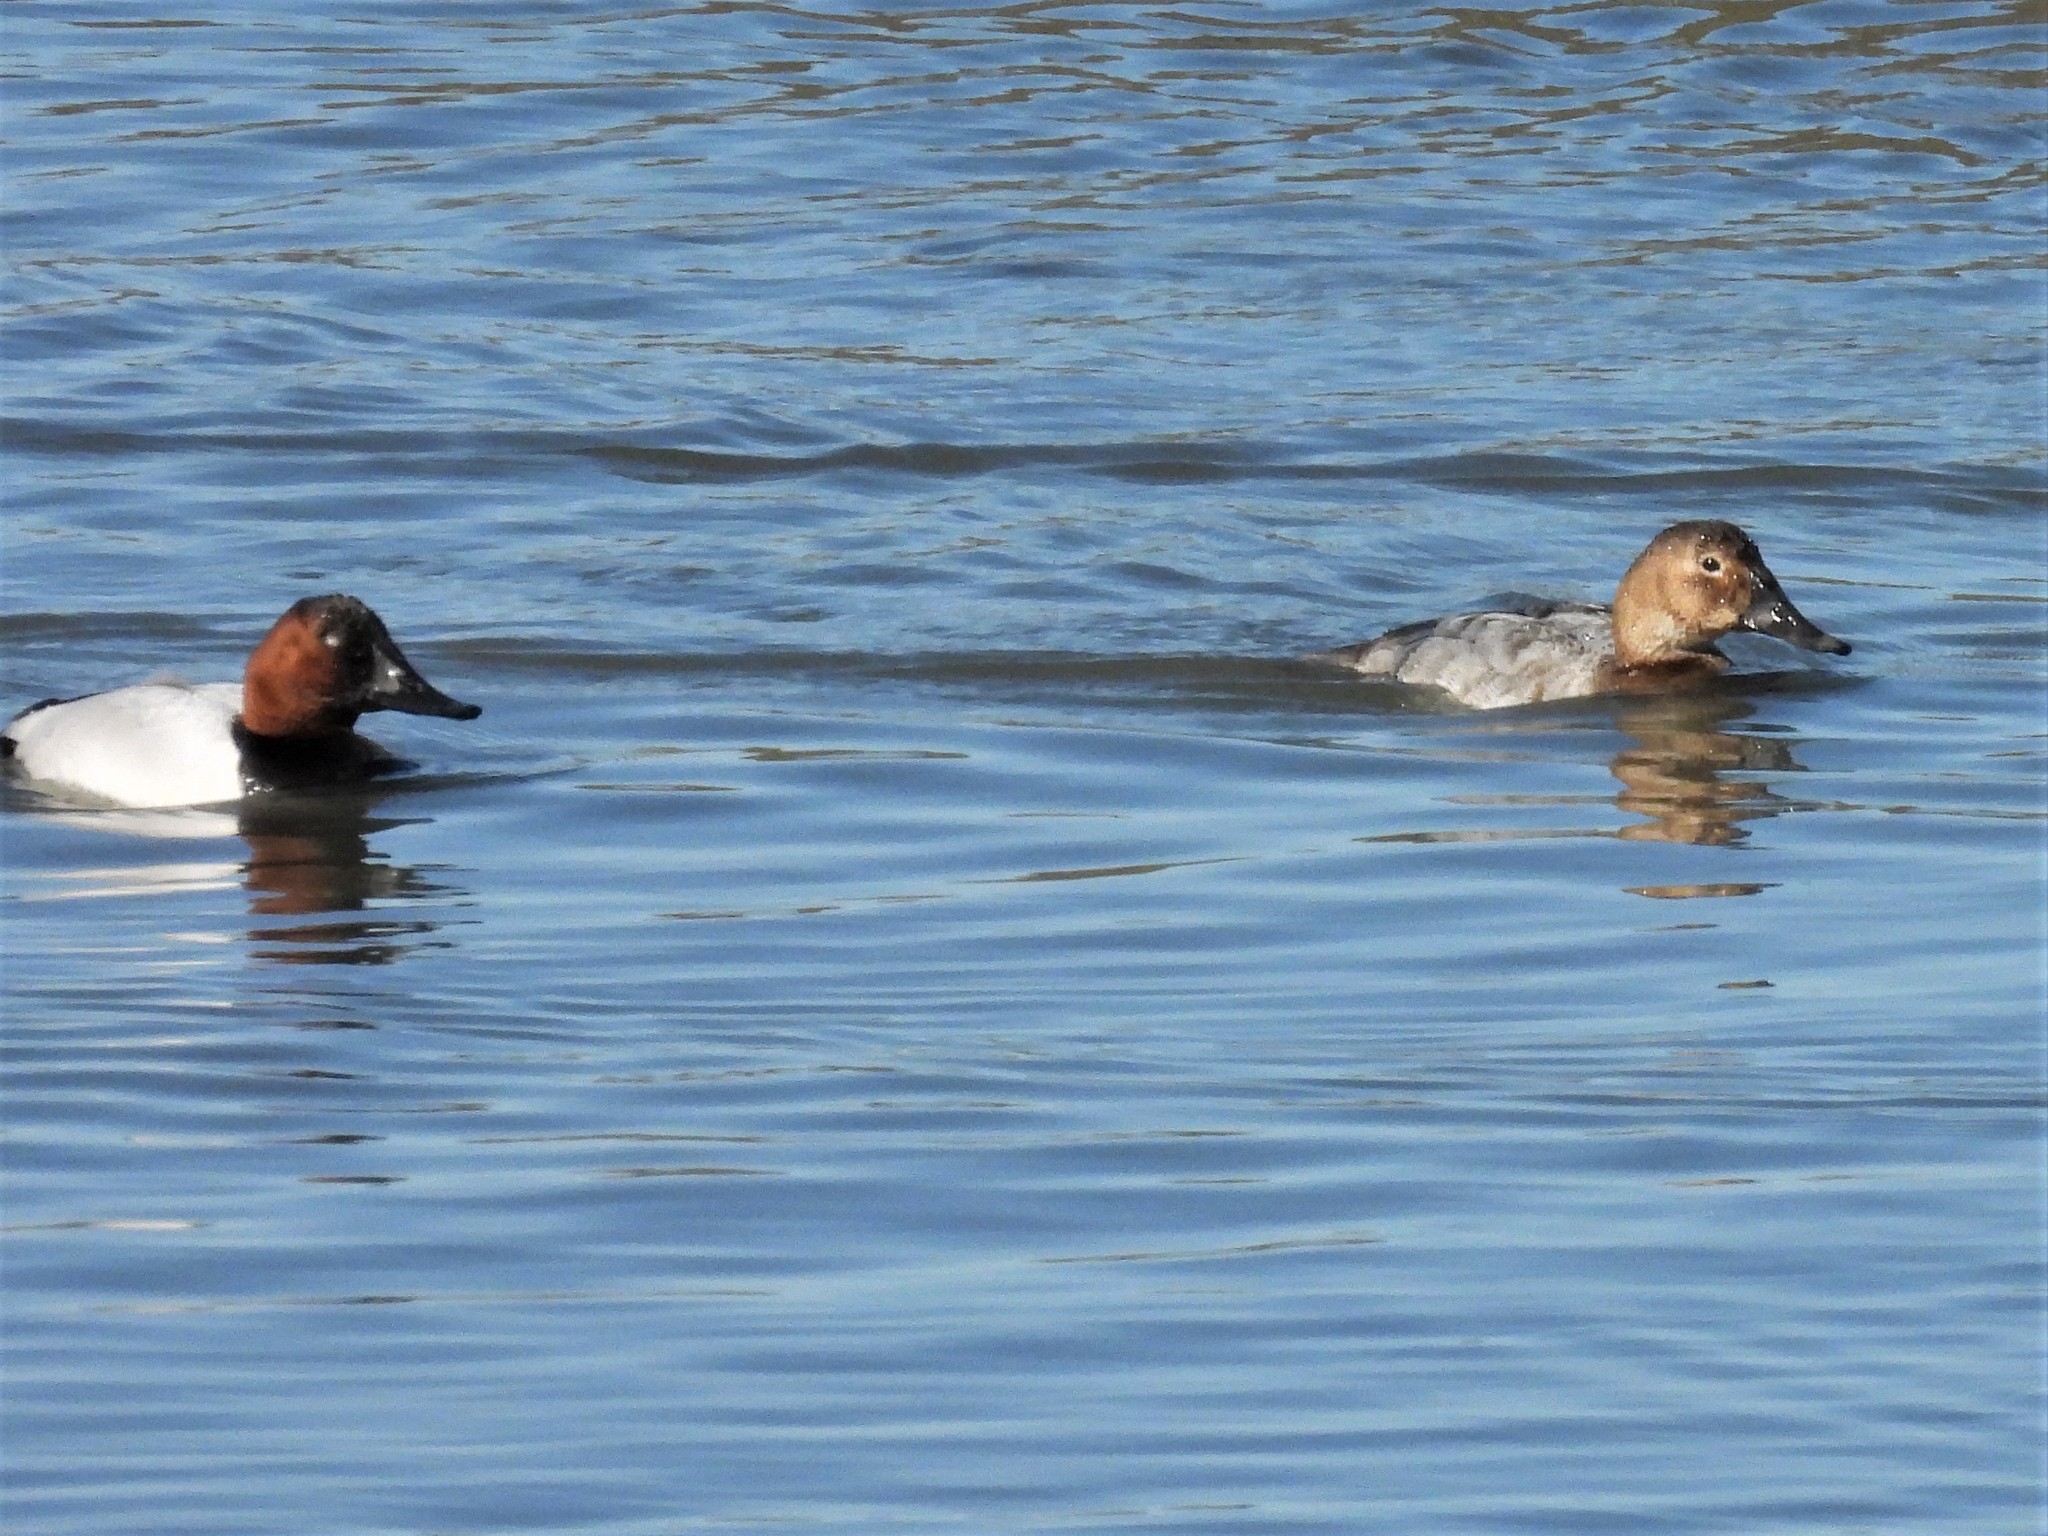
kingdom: Animalia
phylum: Chordata
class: Aves
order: Anseriformes
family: Anatidae
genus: Aythya
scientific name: Aythya valisineria
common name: Canvasback
